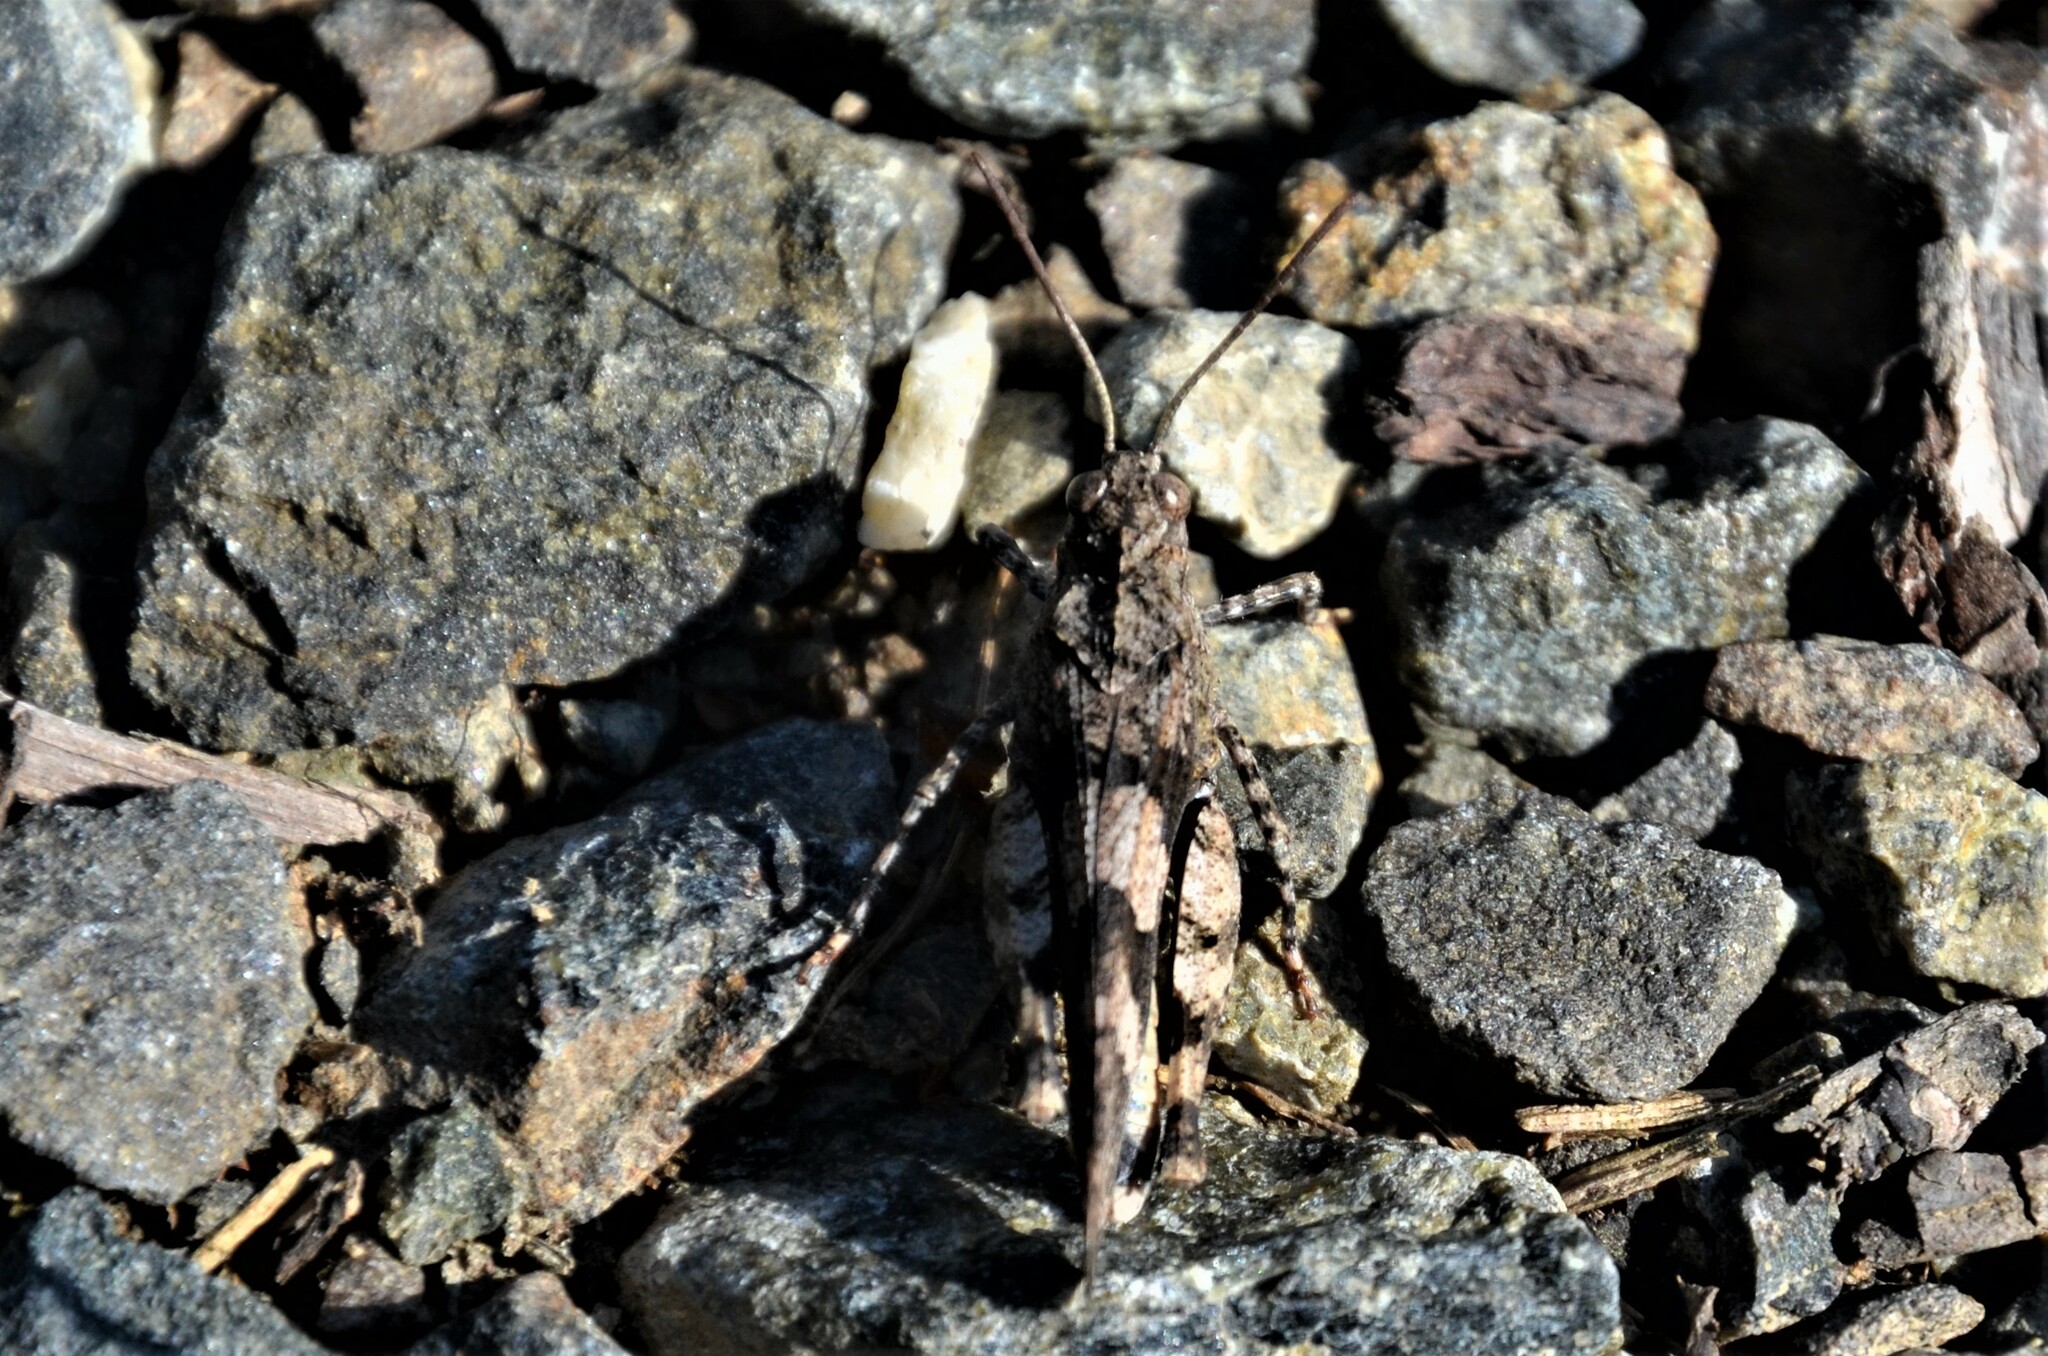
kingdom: Animalia
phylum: Arthropoda
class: Insecta
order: Orthoptera
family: Acrididae
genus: Oedipoda
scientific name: Oedipoda caerulescens
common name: Blue-winged grasshopper
